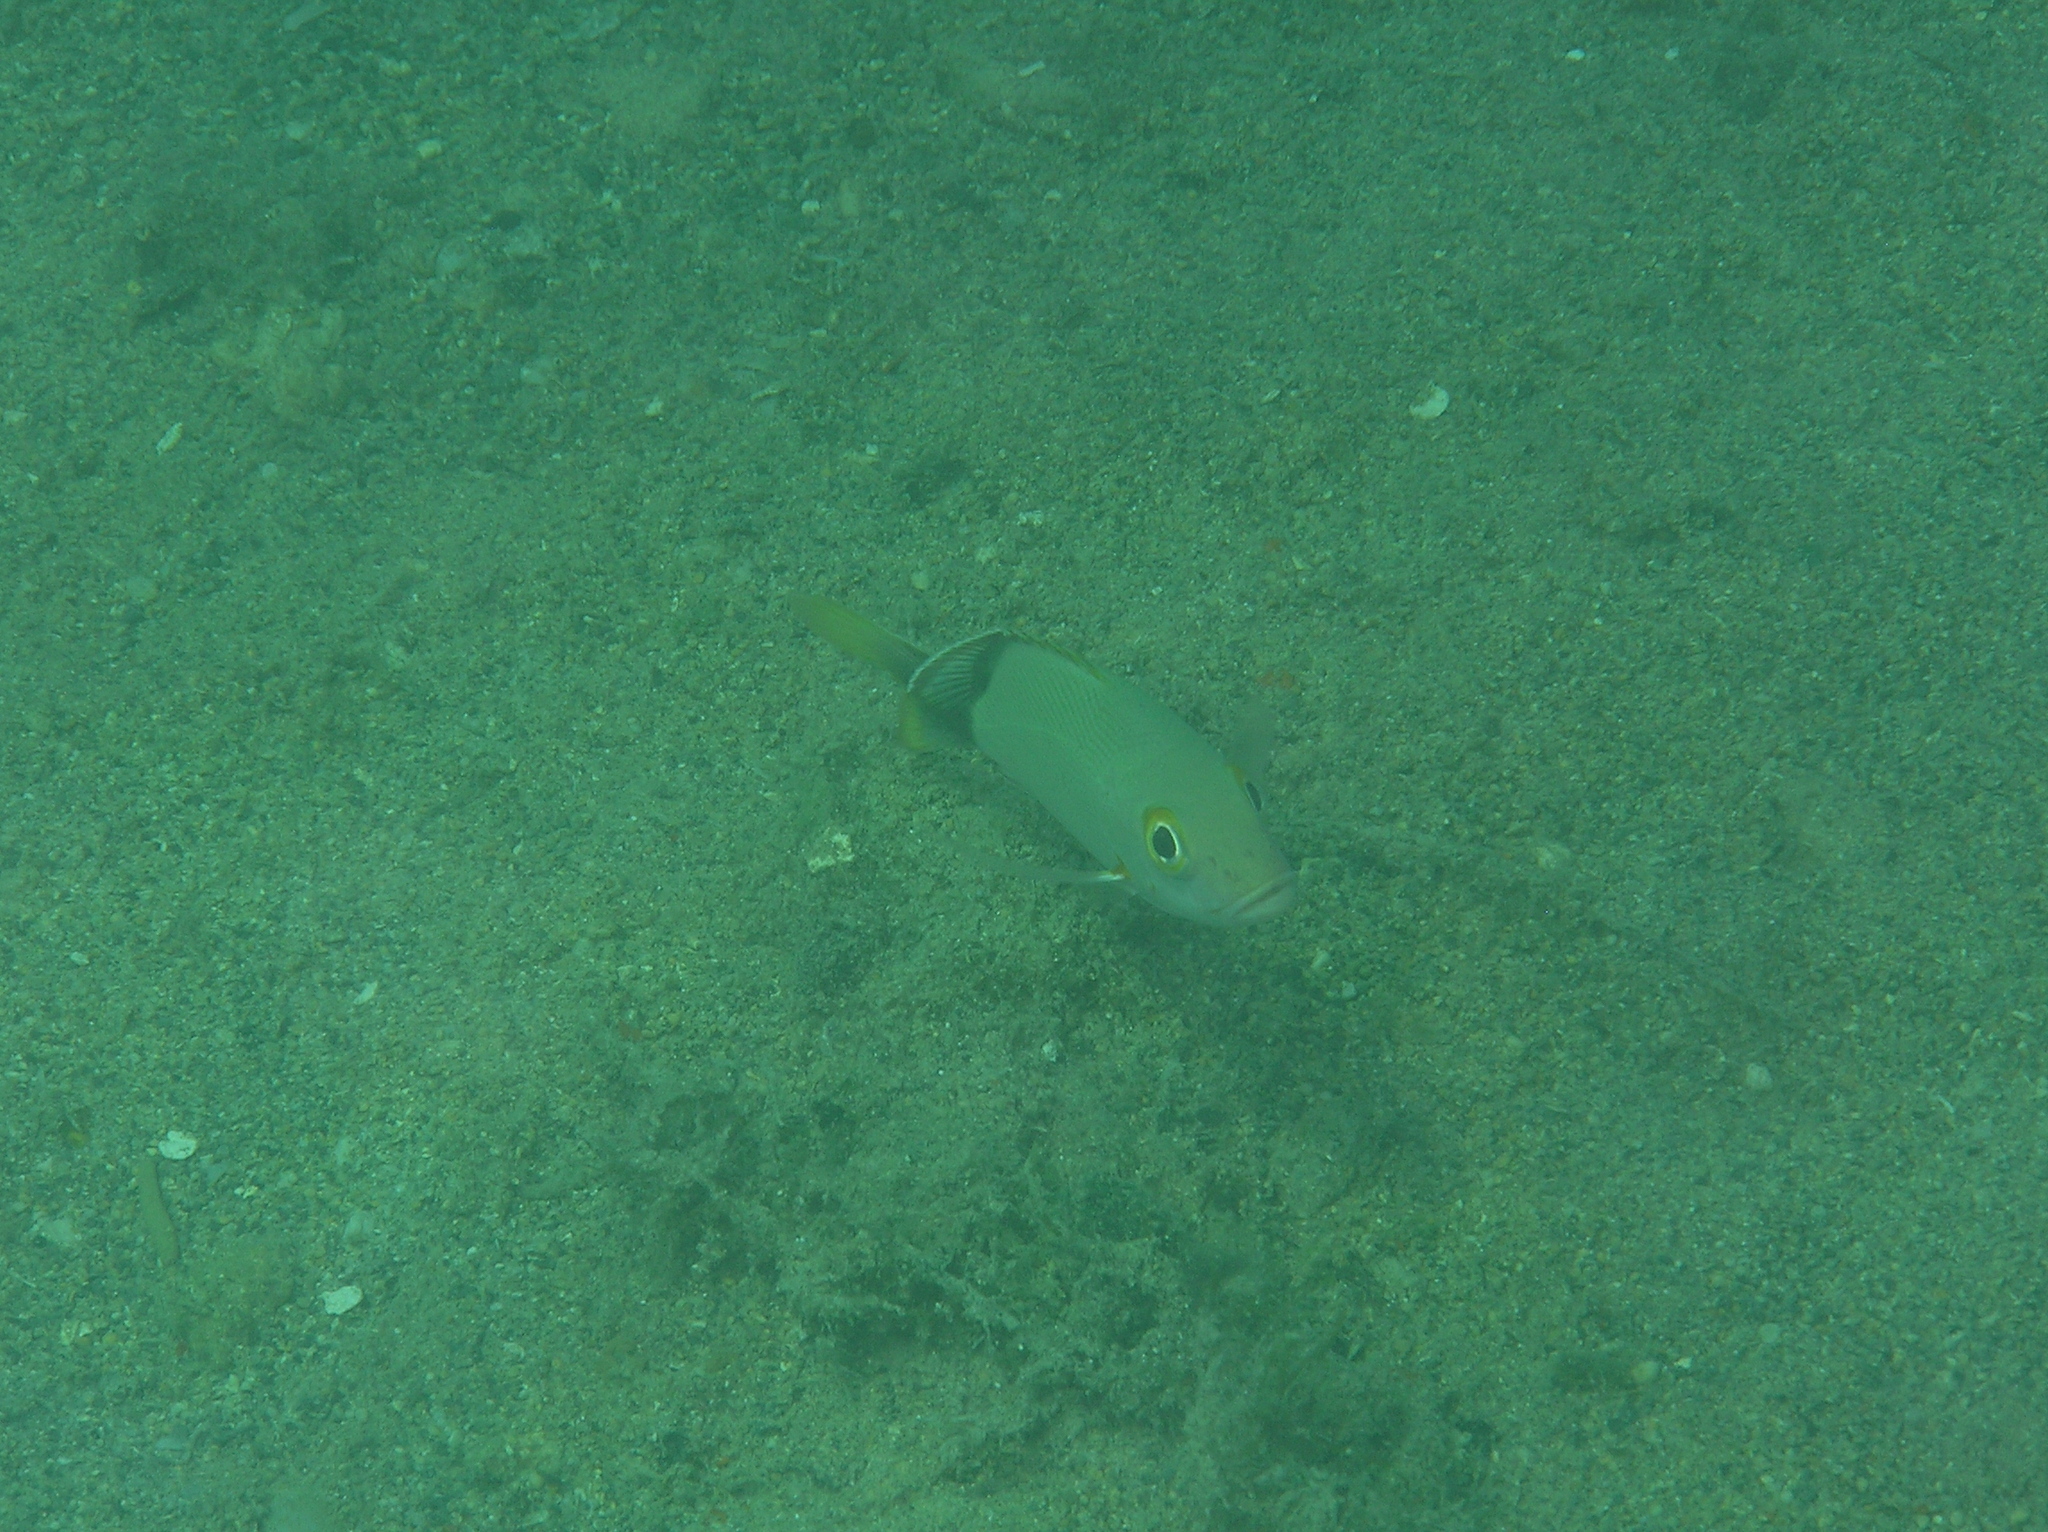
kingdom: Animalia
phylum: Chordata
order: Perciformes
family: Lutjanidae
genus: Lutjanus
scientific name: Lutjanus gibbus
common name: Humpback snapper
